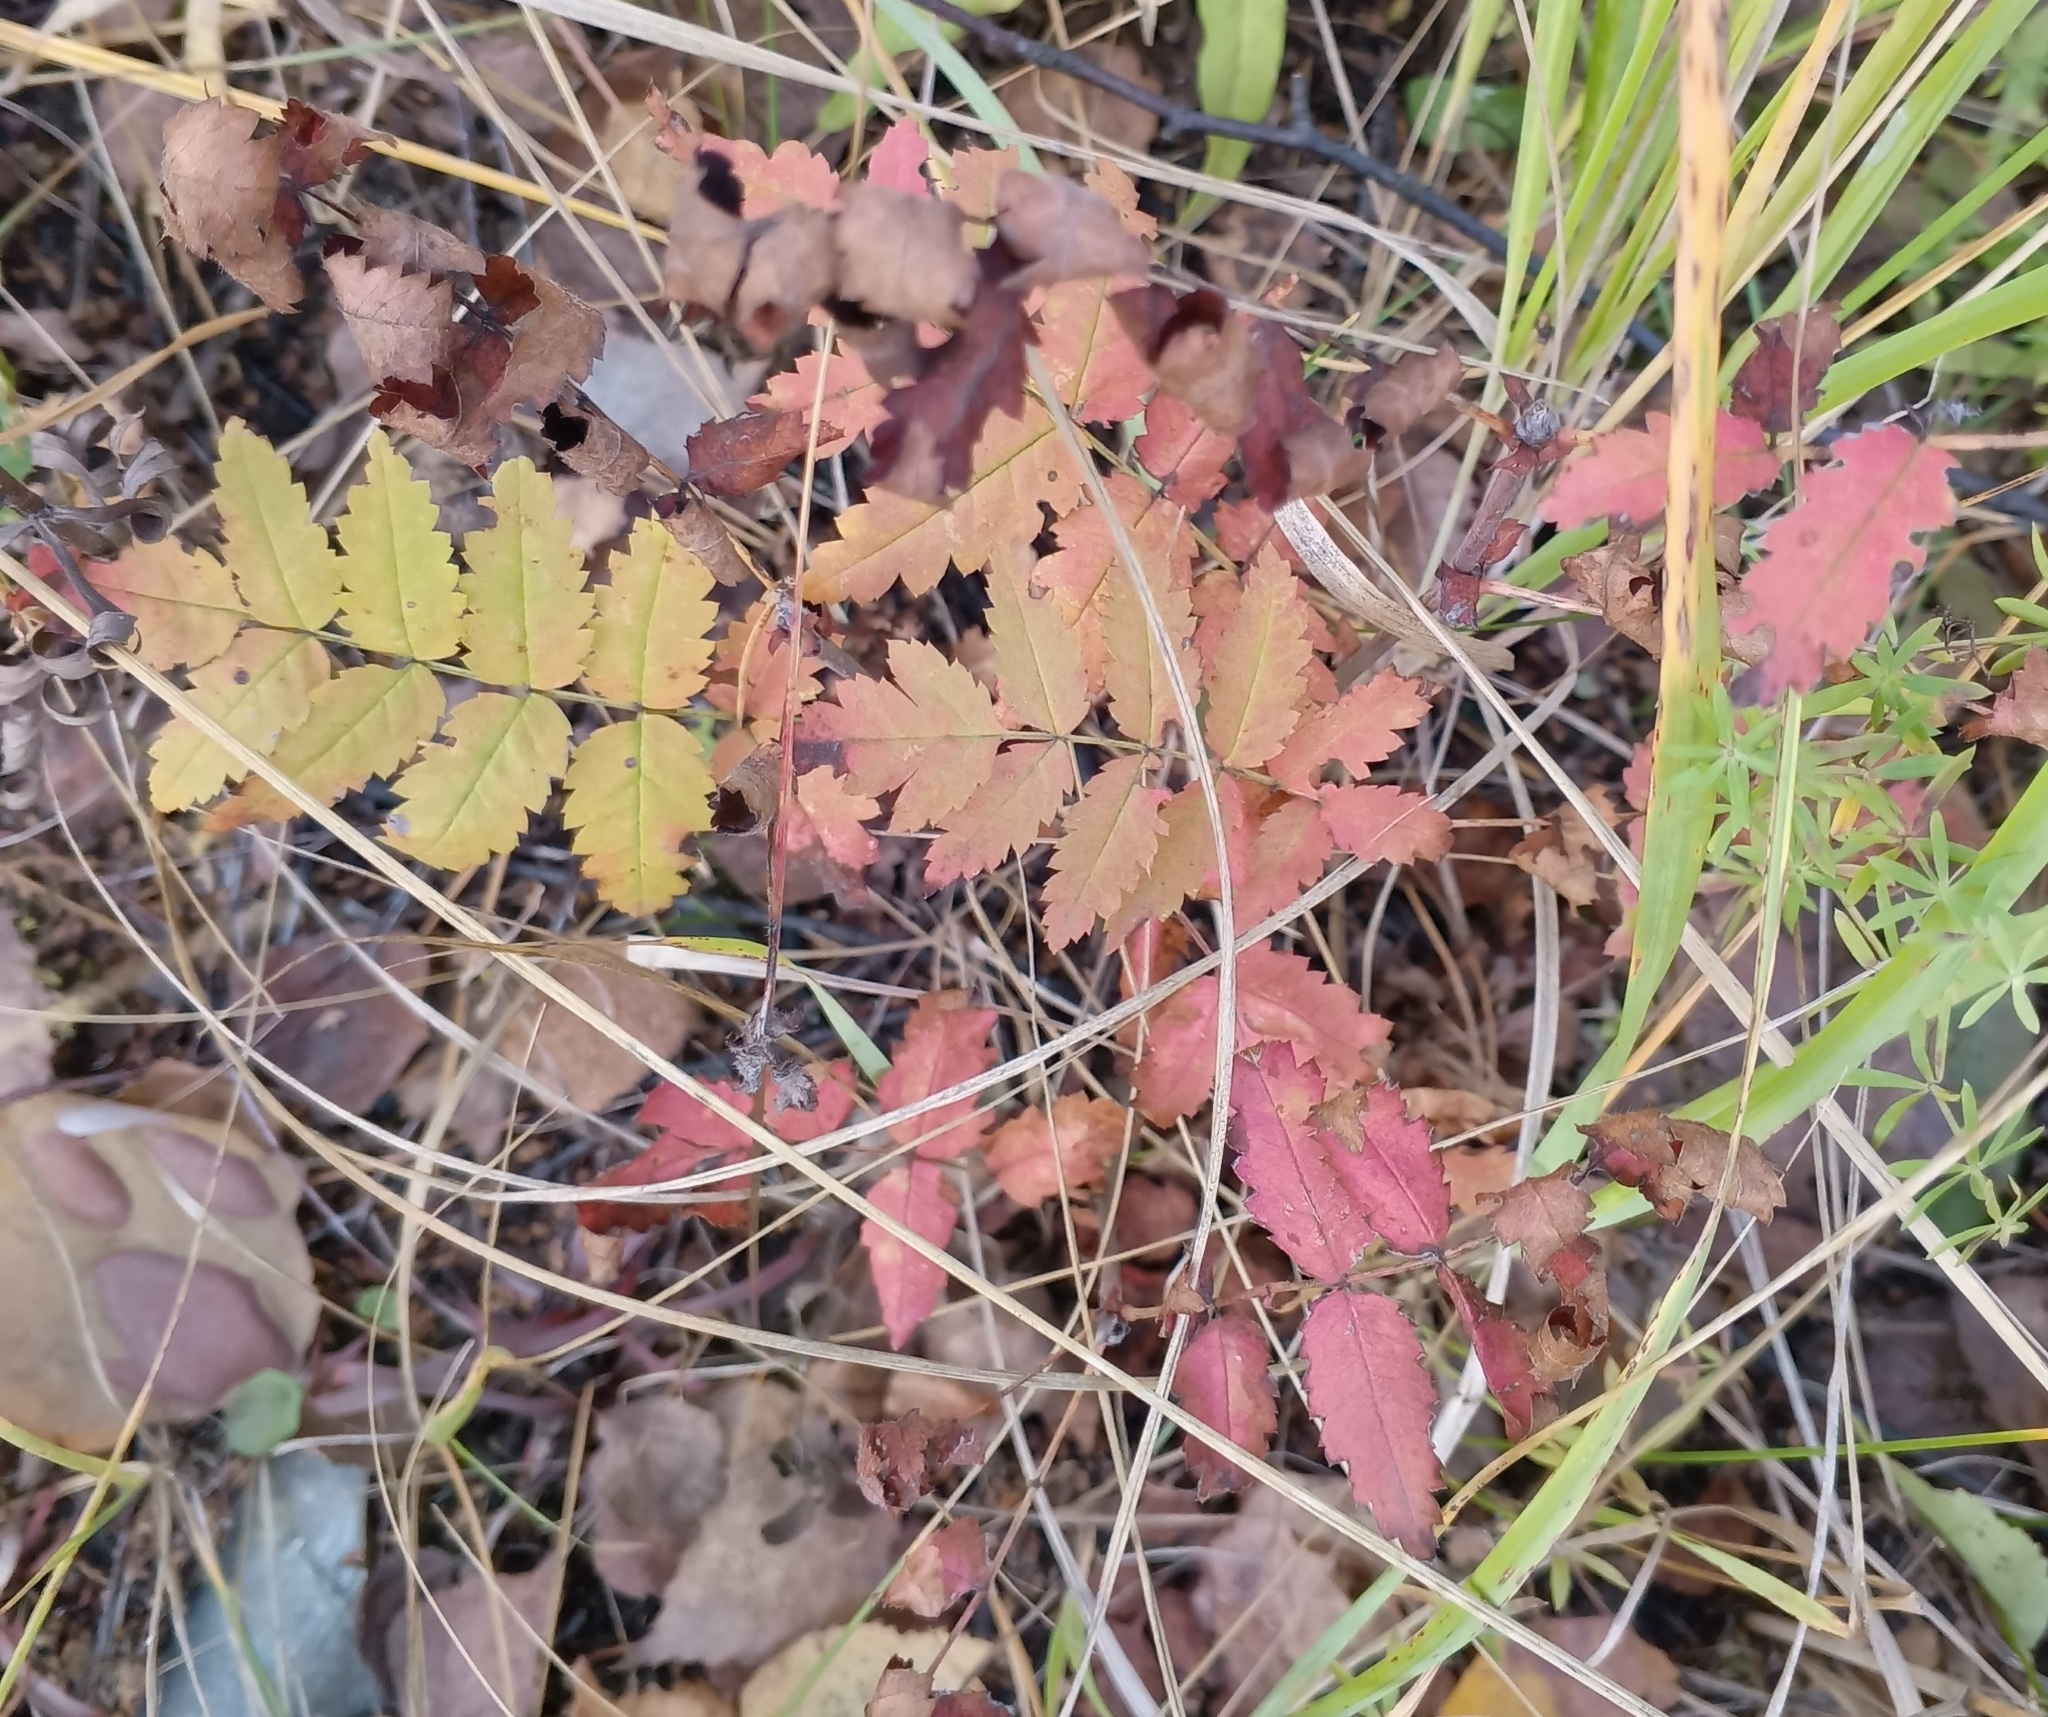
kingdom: Plantae
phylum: Tracheophyta
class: Magnoliopsida
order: Rosales
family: Rosaceae
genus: Sorbus
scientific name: Sorbus aucuparia
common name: Rowan
